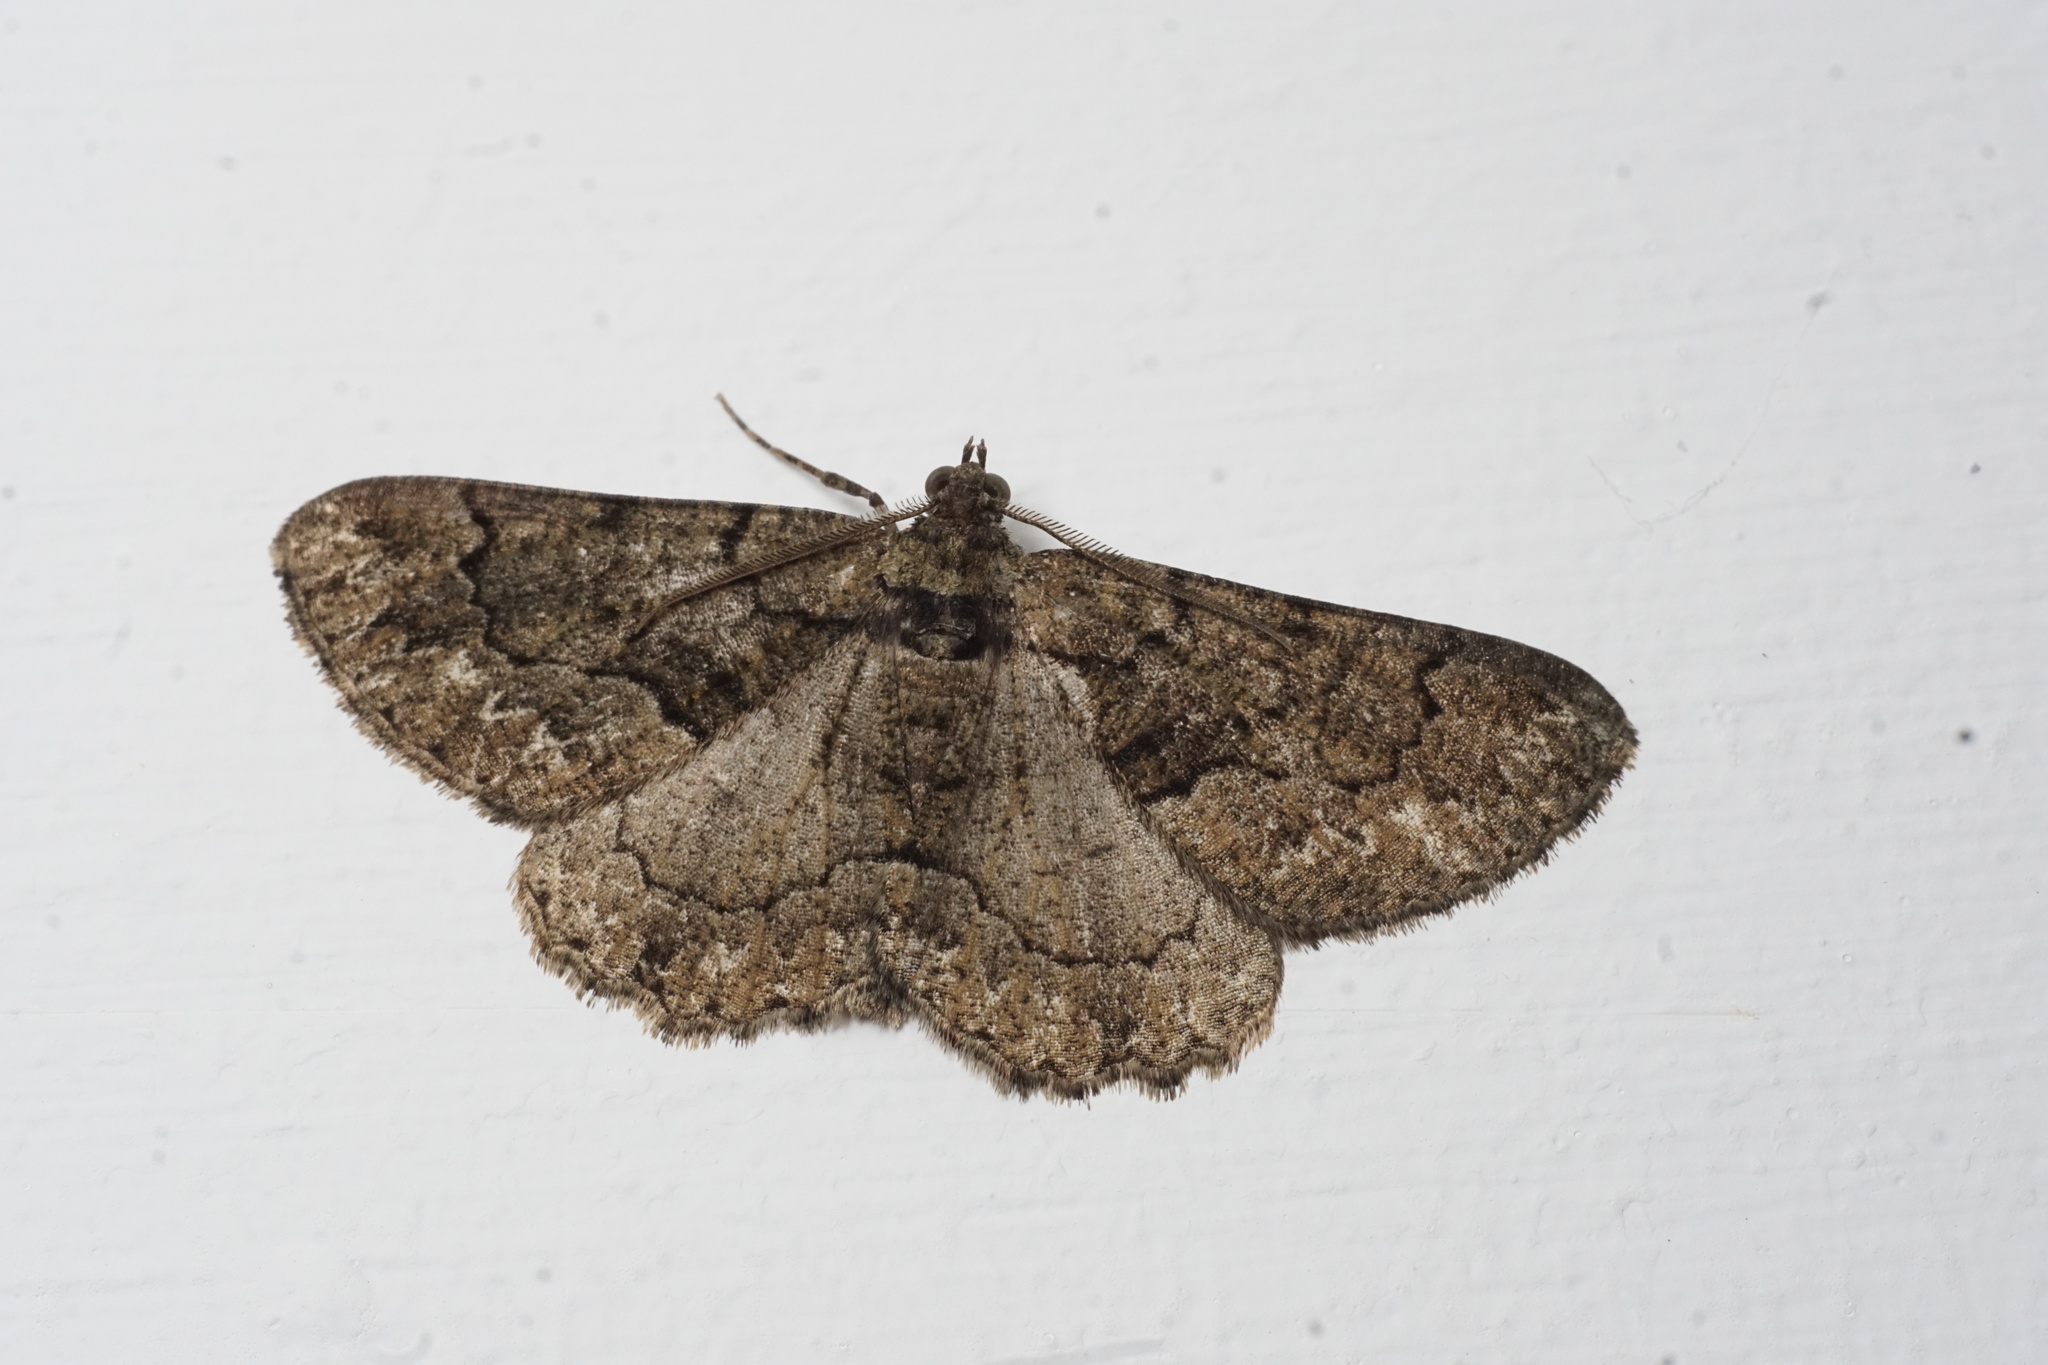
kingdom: Animalia
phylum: Arthropoda
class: Insecta
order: Lepidoptera
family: Geometridae
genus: Peribatodes
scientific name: Peribatodes ilicaria
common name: Lydd beauty
